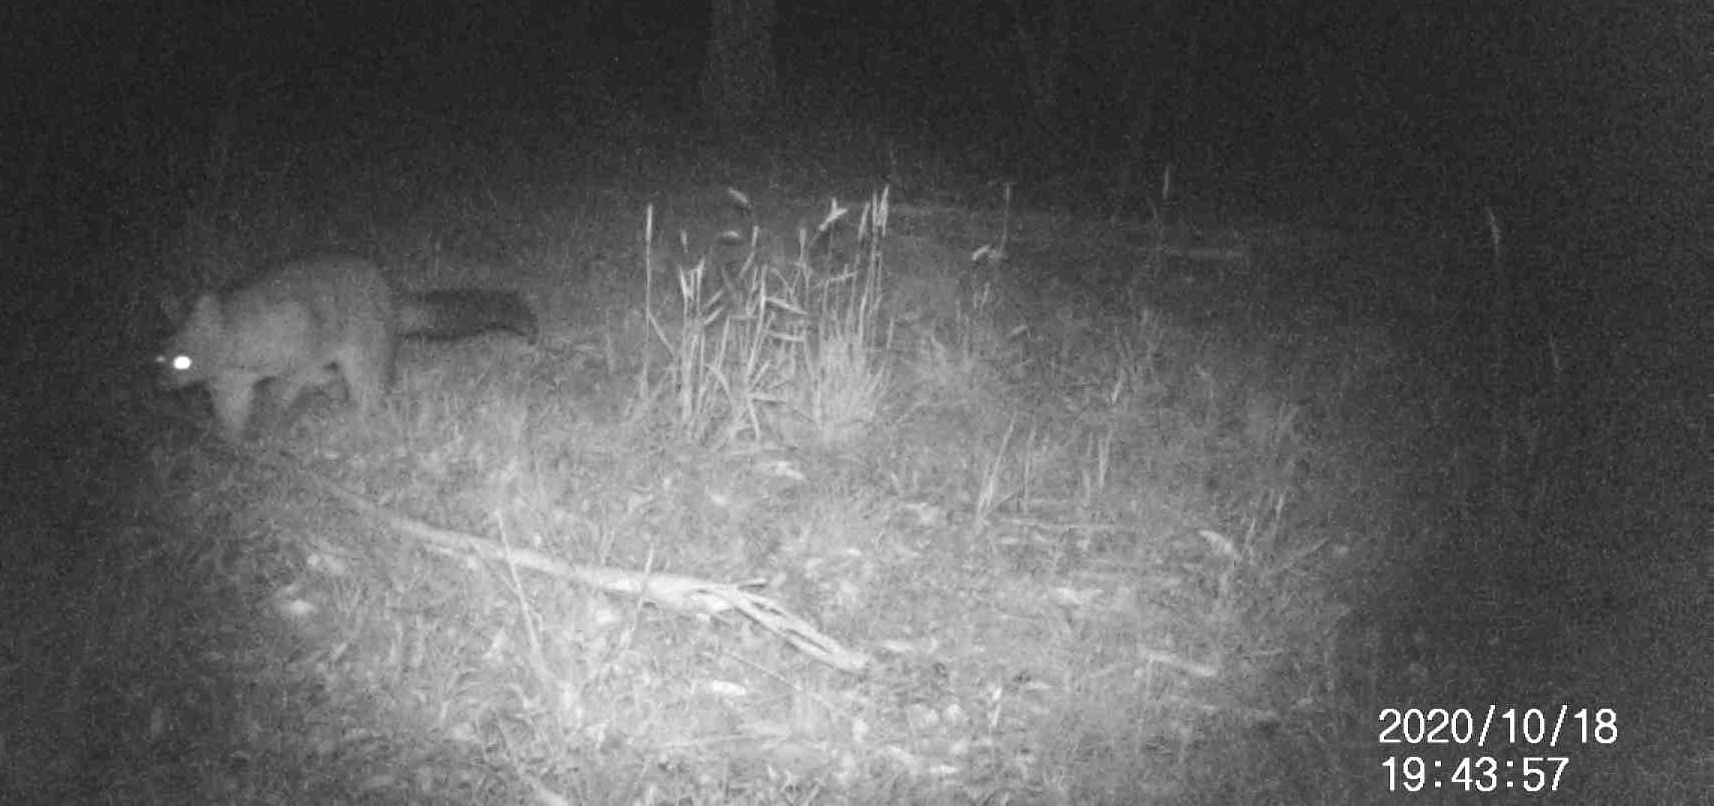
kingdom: Animalia
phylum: Chordata
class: Mammalia
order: Diprotodontia
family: Phalangeridae
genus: Trichosurus
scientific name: Trichosurus vulpecula
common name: Common brushtail
